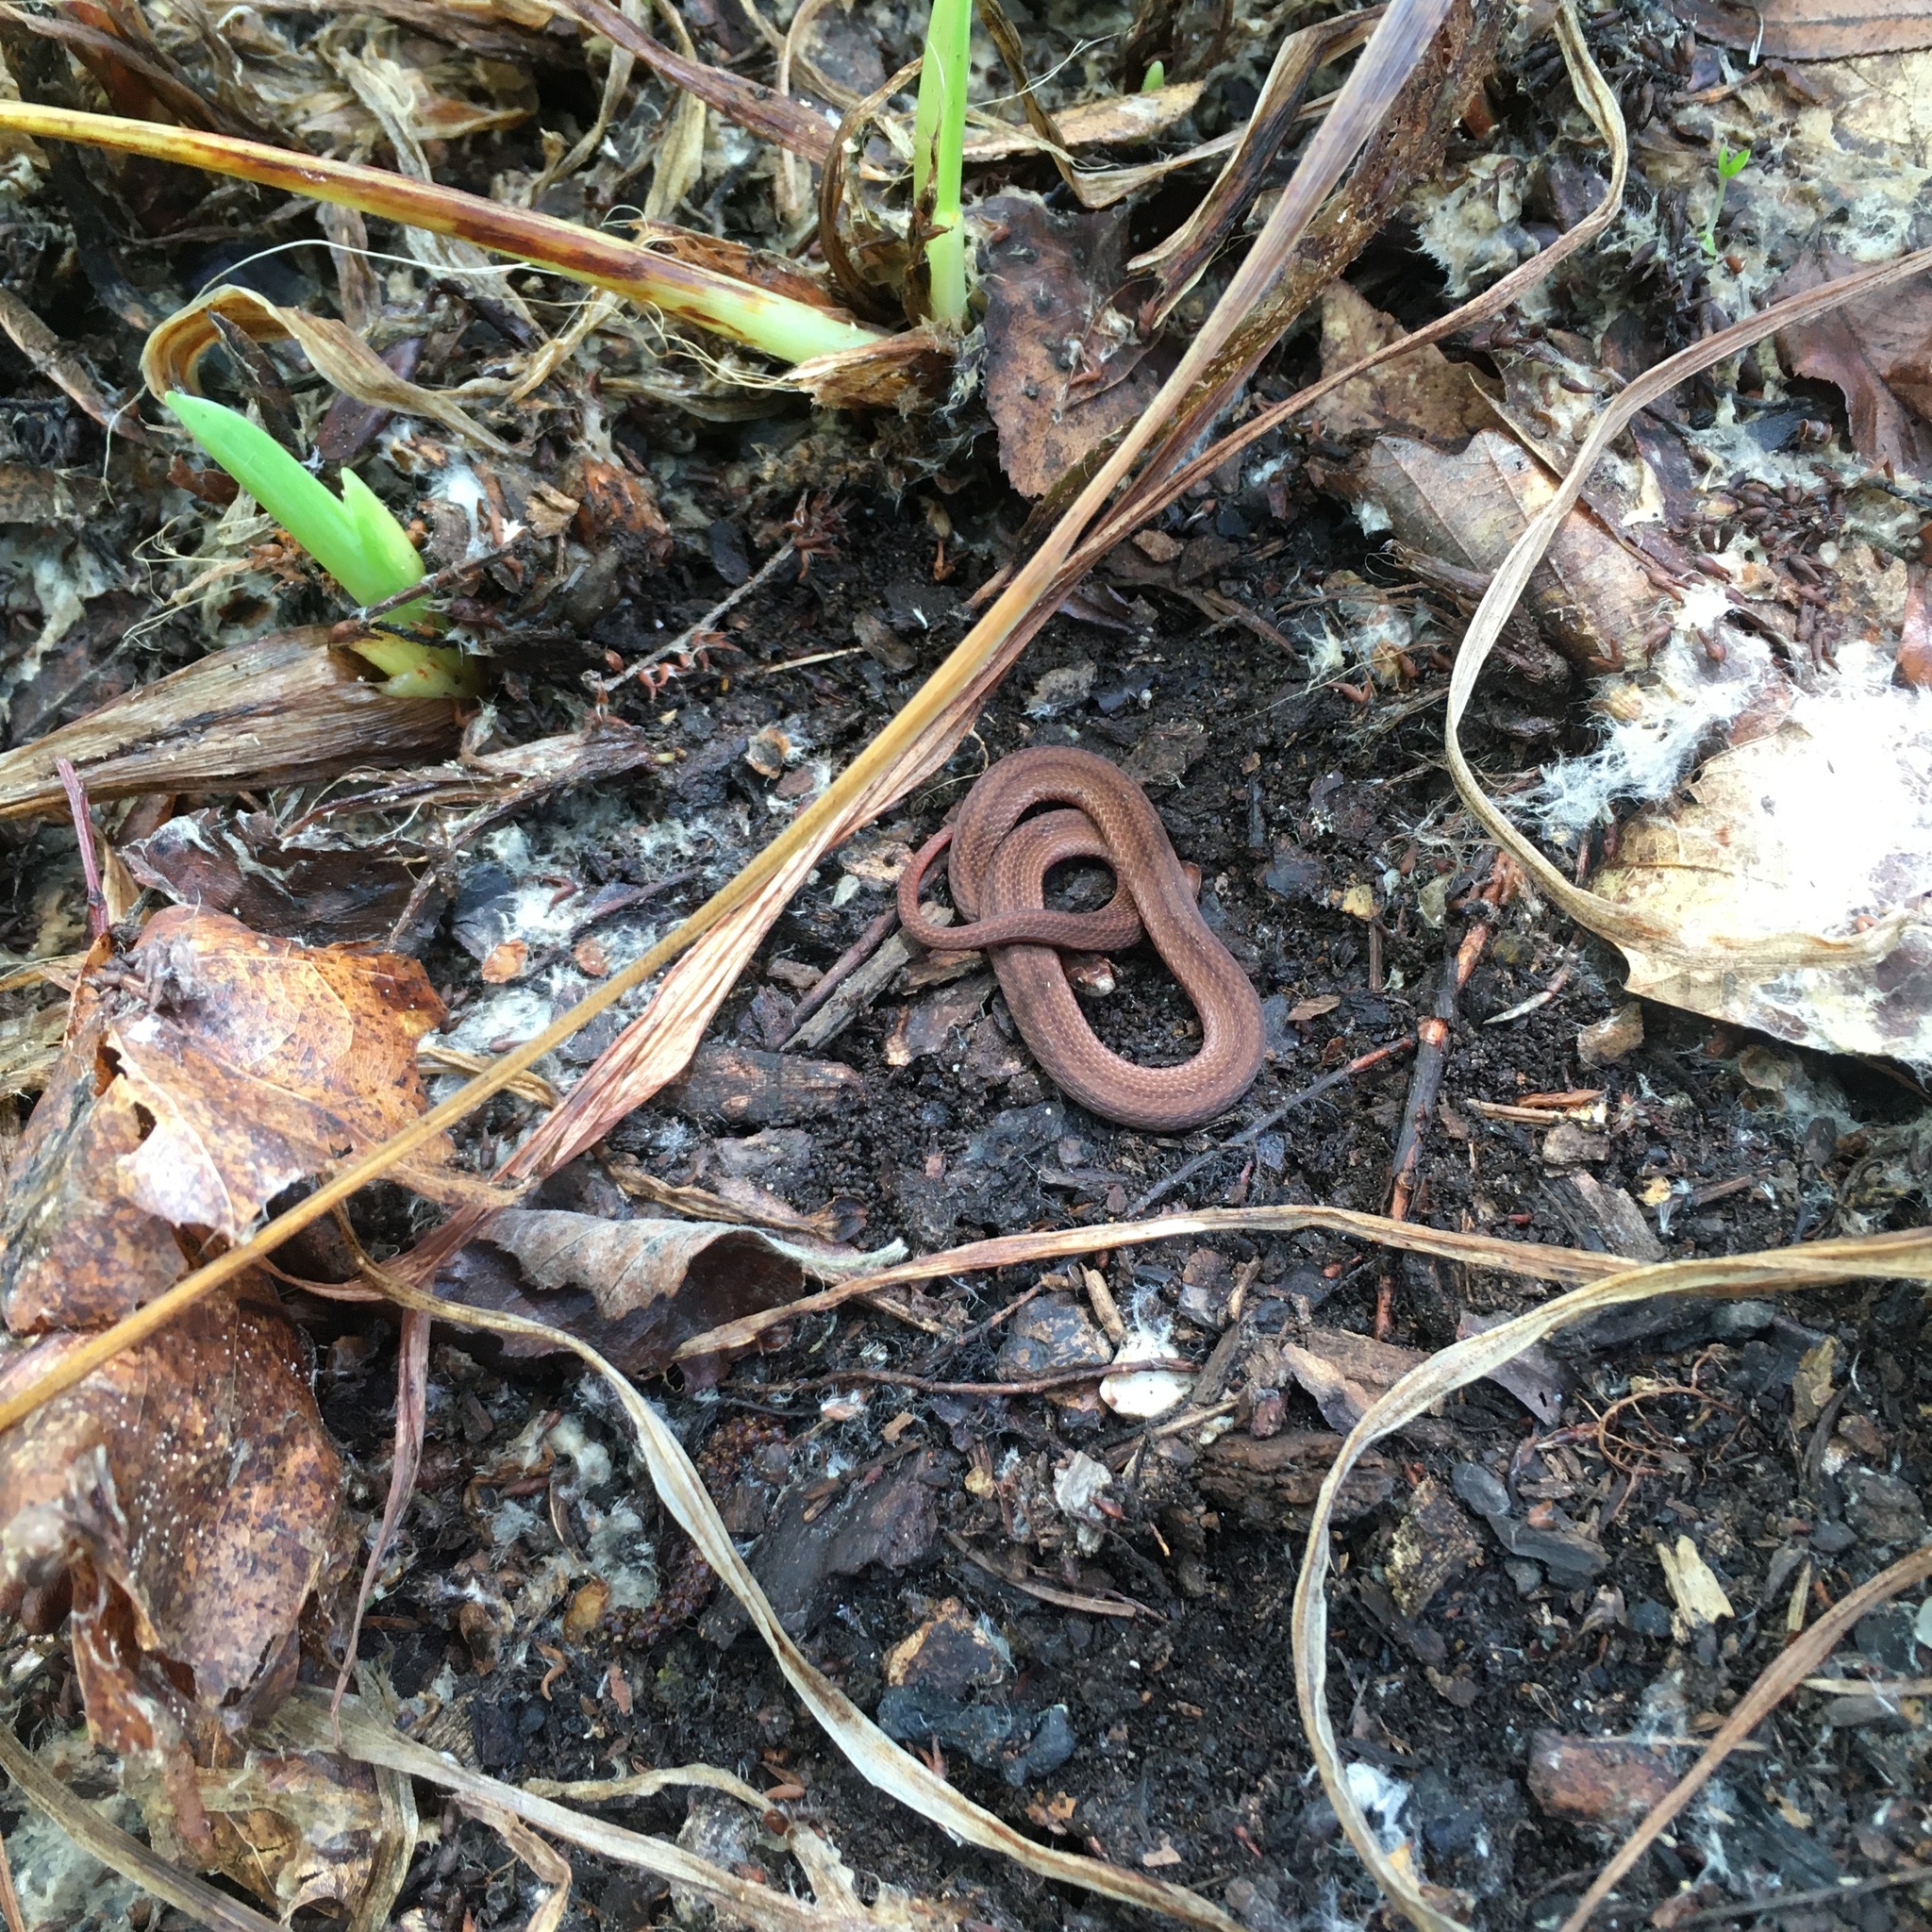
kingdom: Animalia
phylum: Chordata
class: Squamata
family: Colubridae
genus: Storeria
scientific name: Storeria occipitomaculata
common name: Redbelly snake
